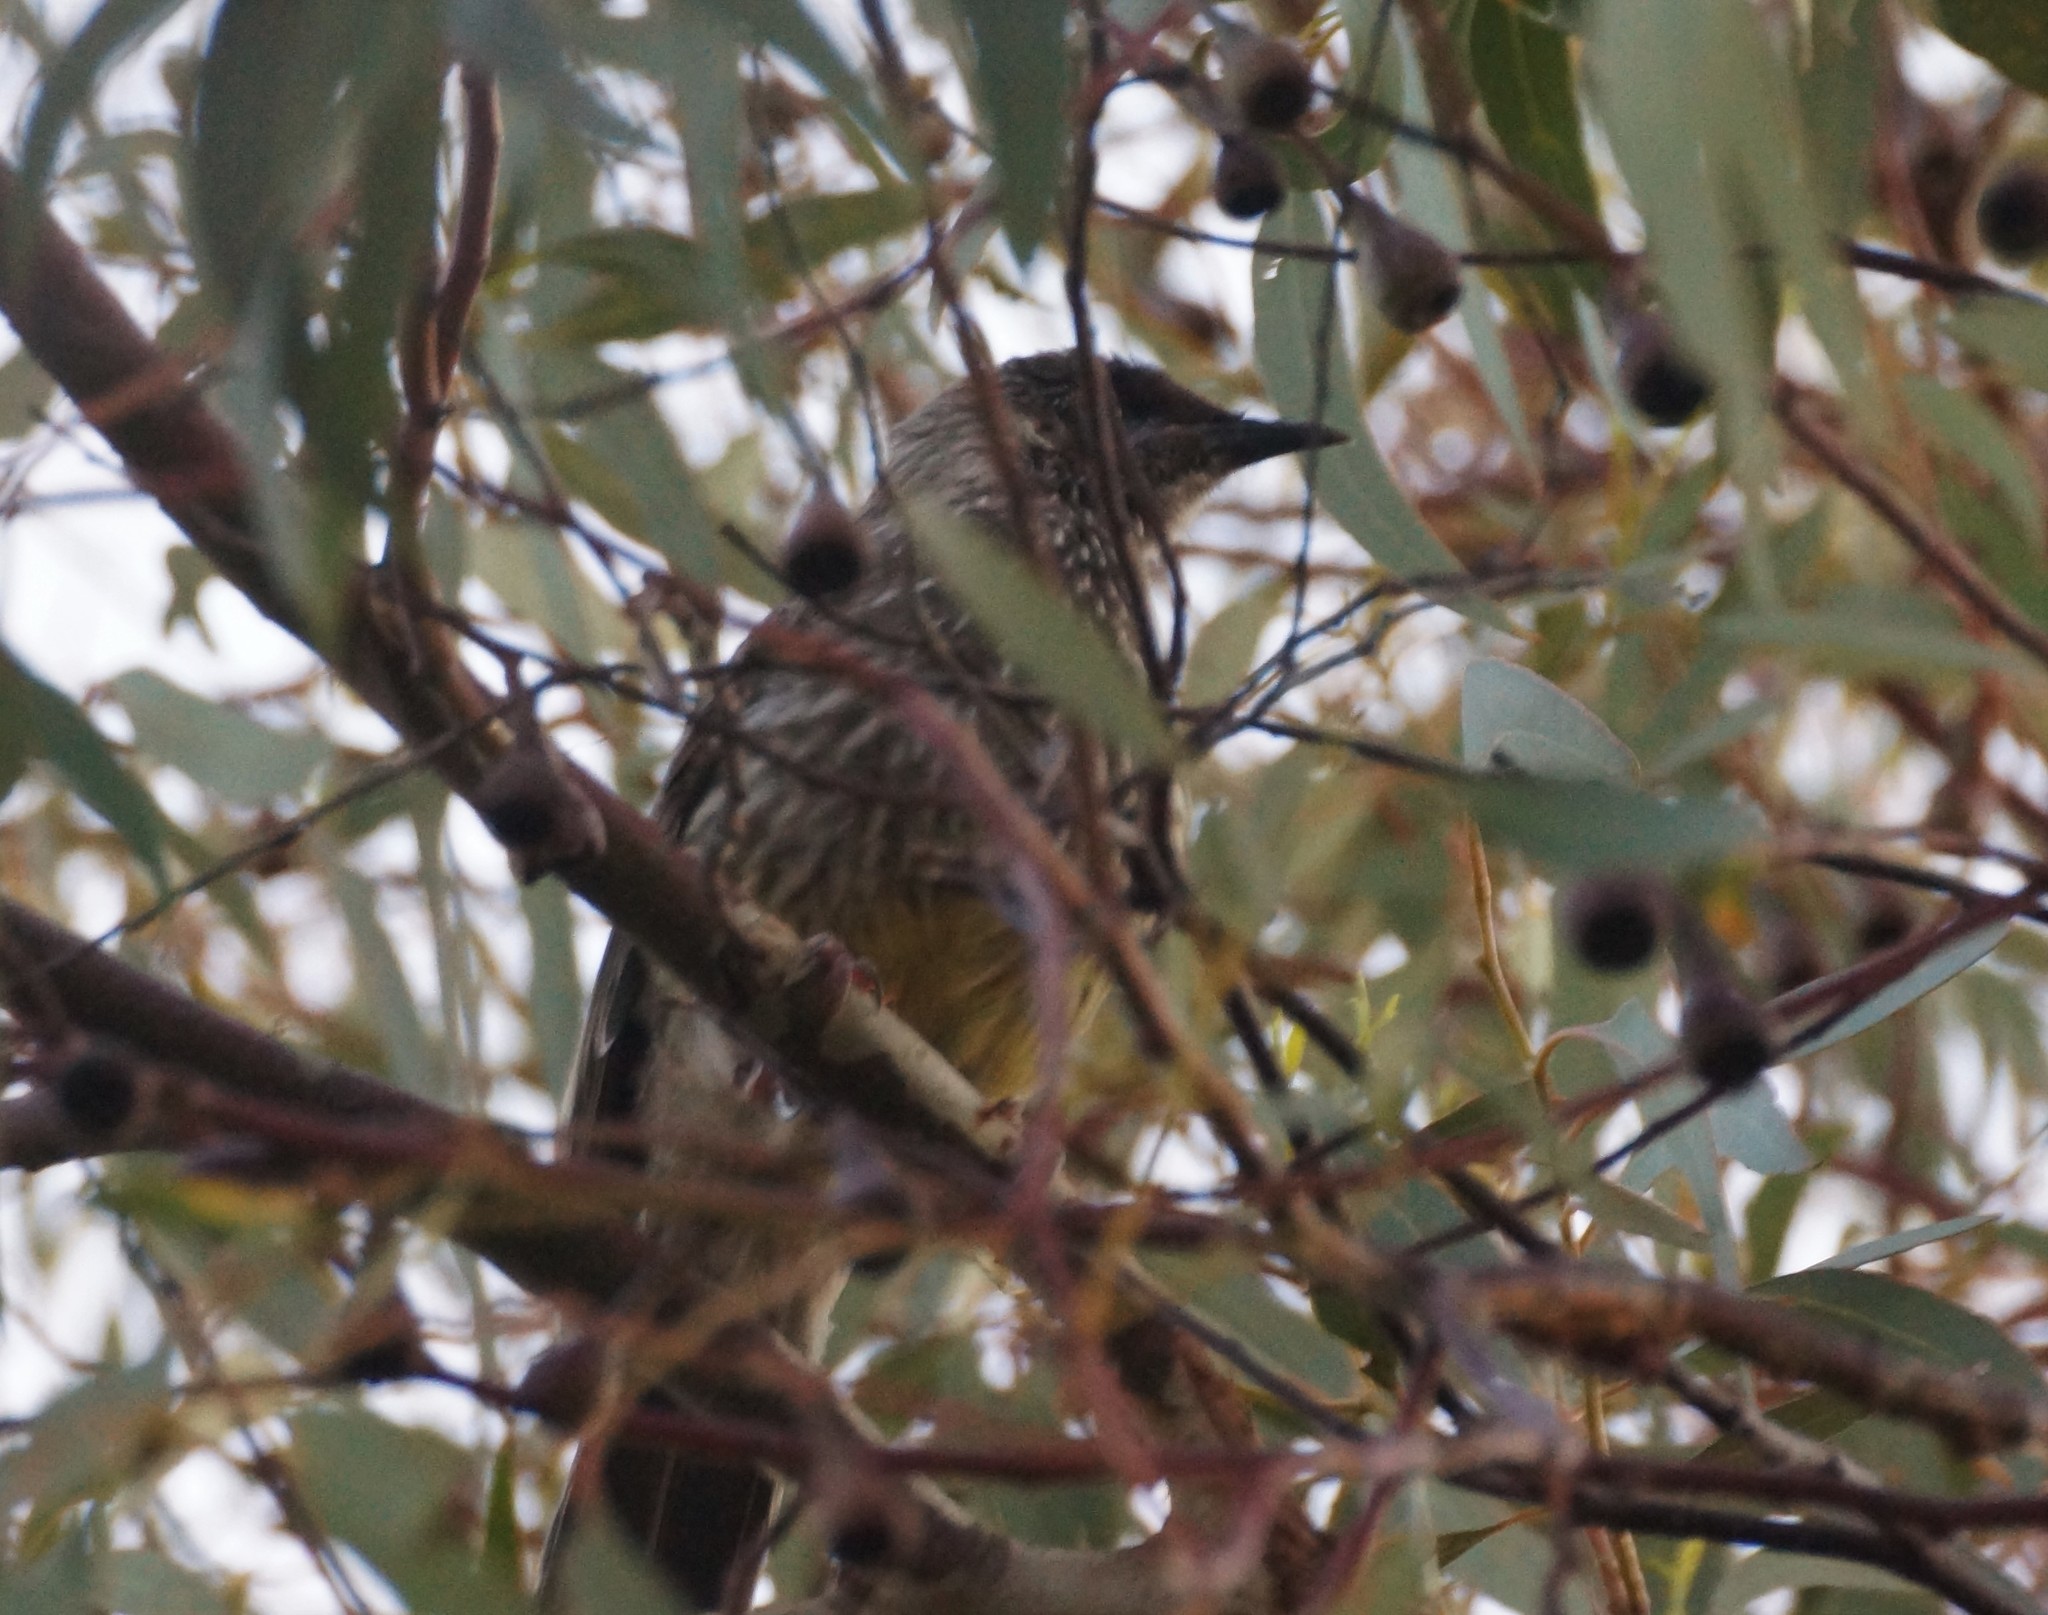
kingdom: Animalia
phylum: Chordata
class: Aves
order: Passeriformes
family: Meliphagidae
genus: Anthochaera
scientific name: Anthochaera carunculata
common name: Red wattlebird
